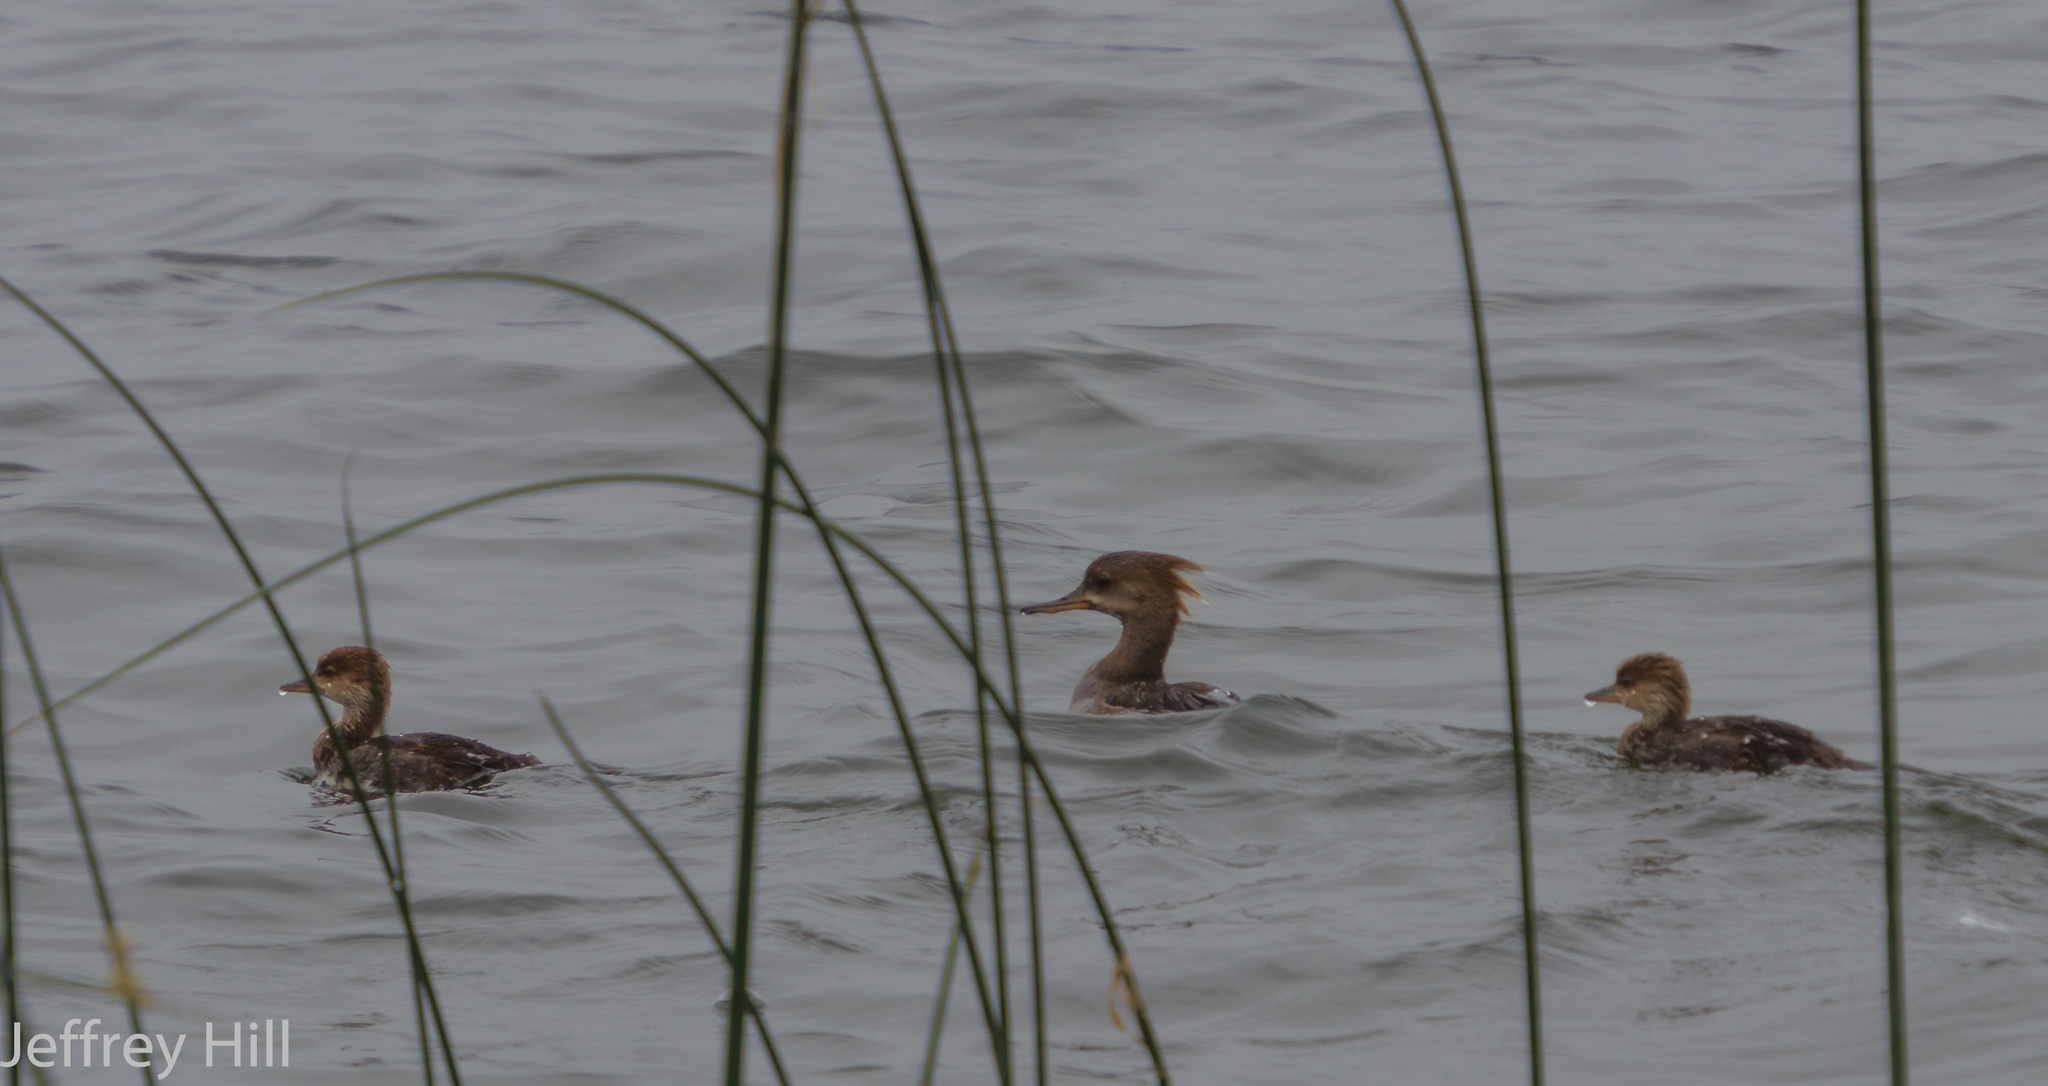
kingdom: Animalia
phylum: Chordata
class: Aves
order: Anseriformes
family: Anatidae
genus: Lophodytes
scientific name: Lophodytes cucullatus
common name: Hooded merganser
